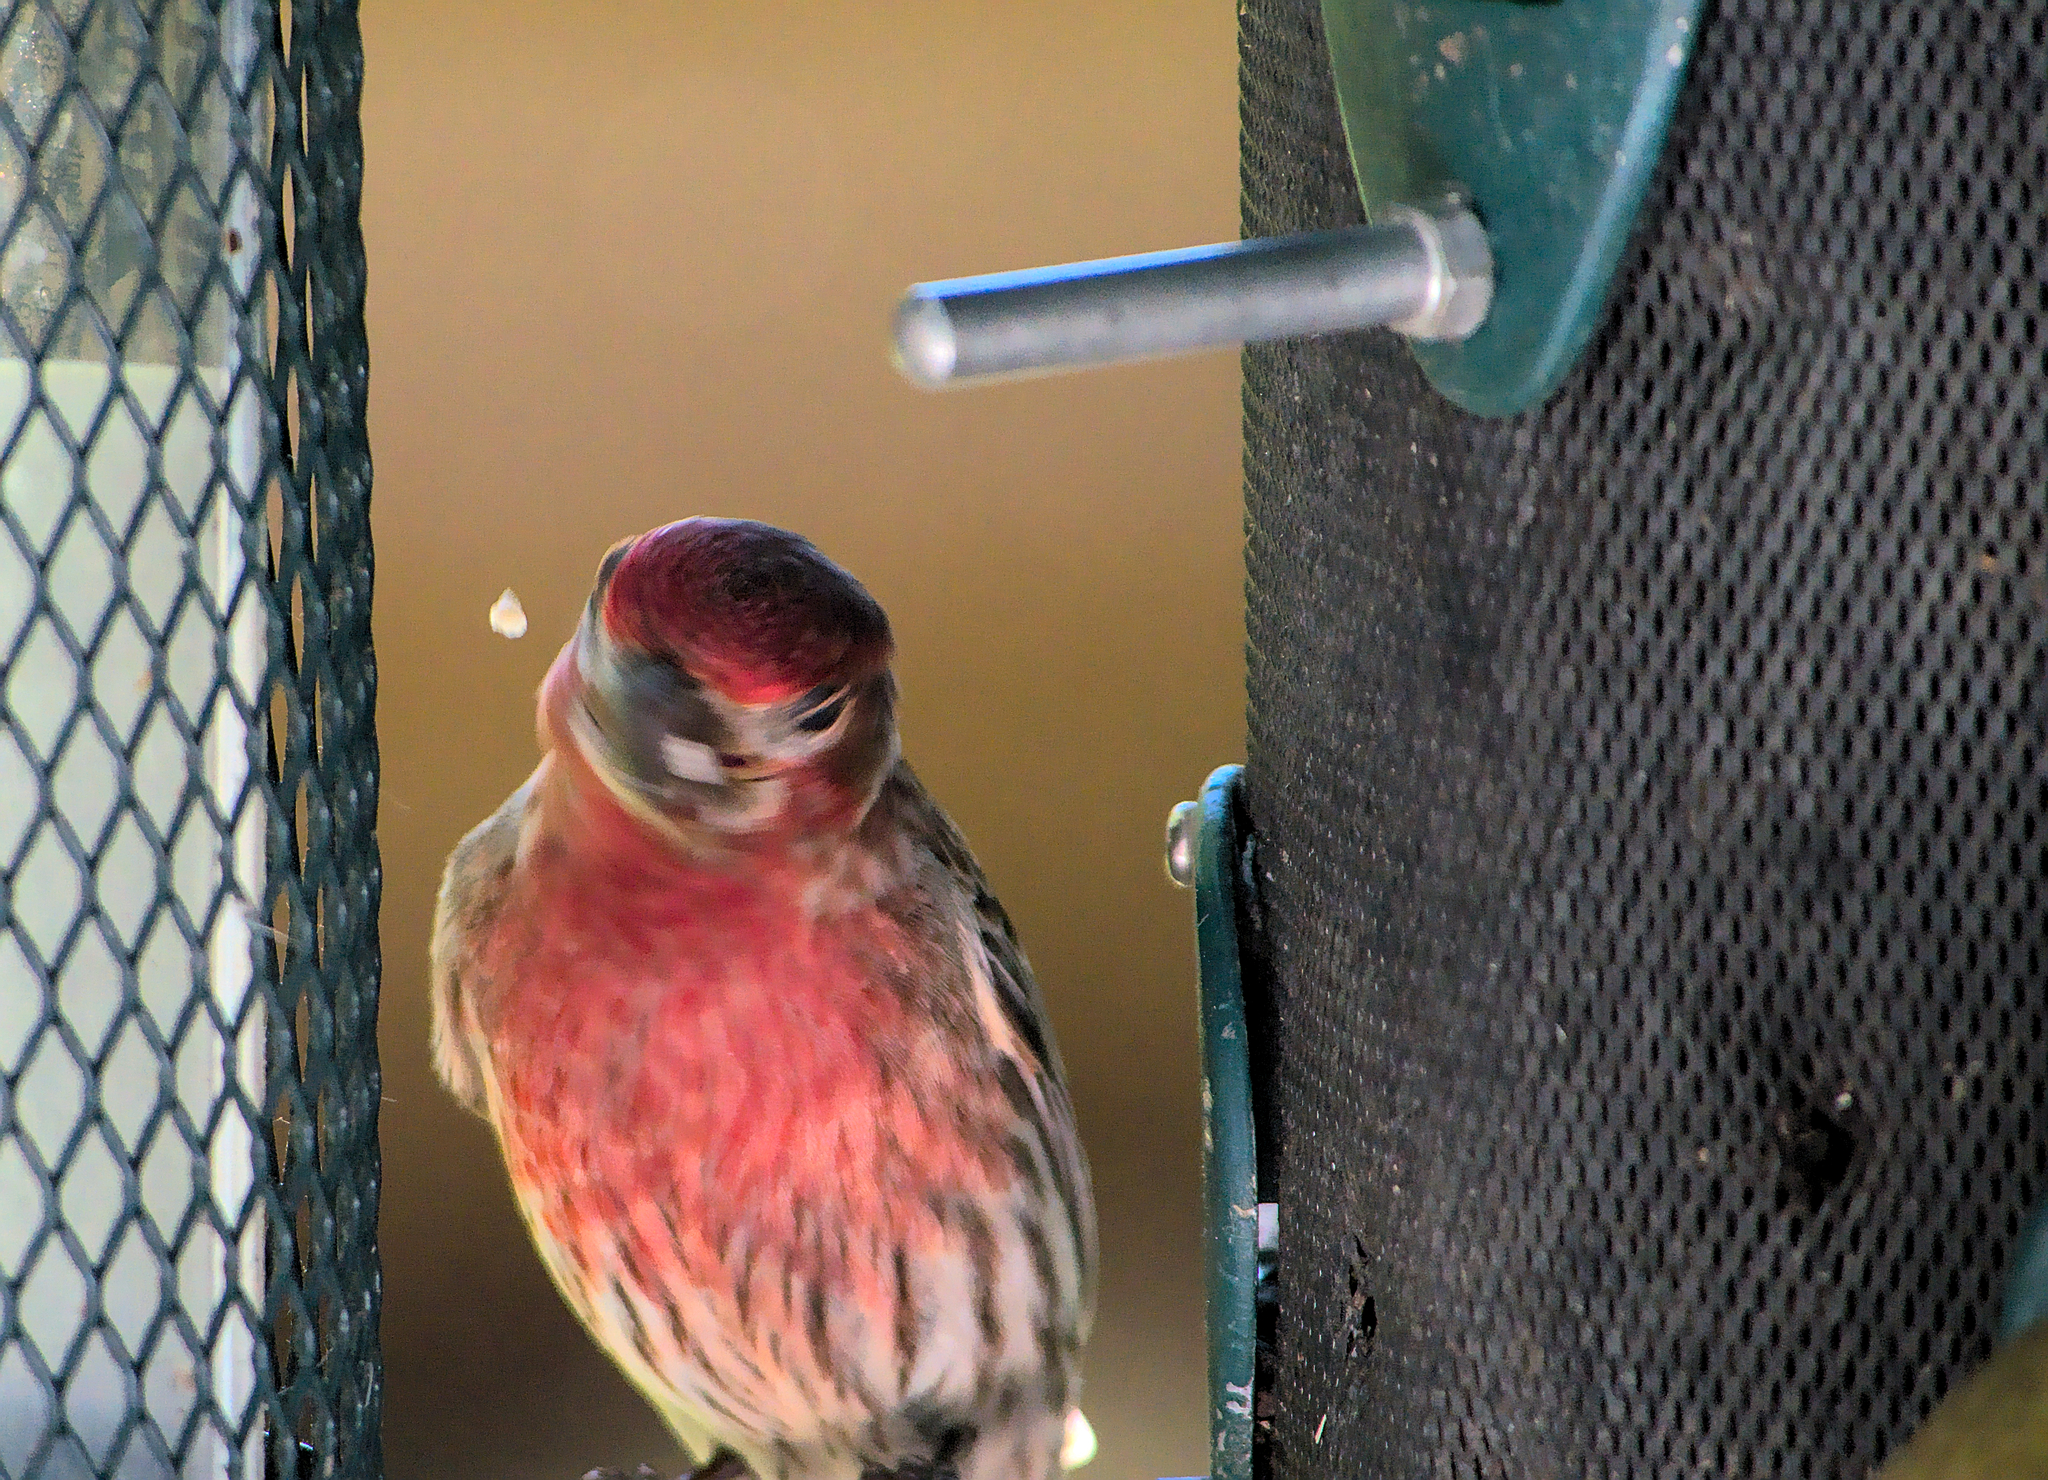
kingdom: Animalia
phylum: Chordata
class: Aves
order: Passeriformes
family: Fringillidae
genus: Haemorhous
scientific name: Haemorhous mexicanus
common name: House finch
